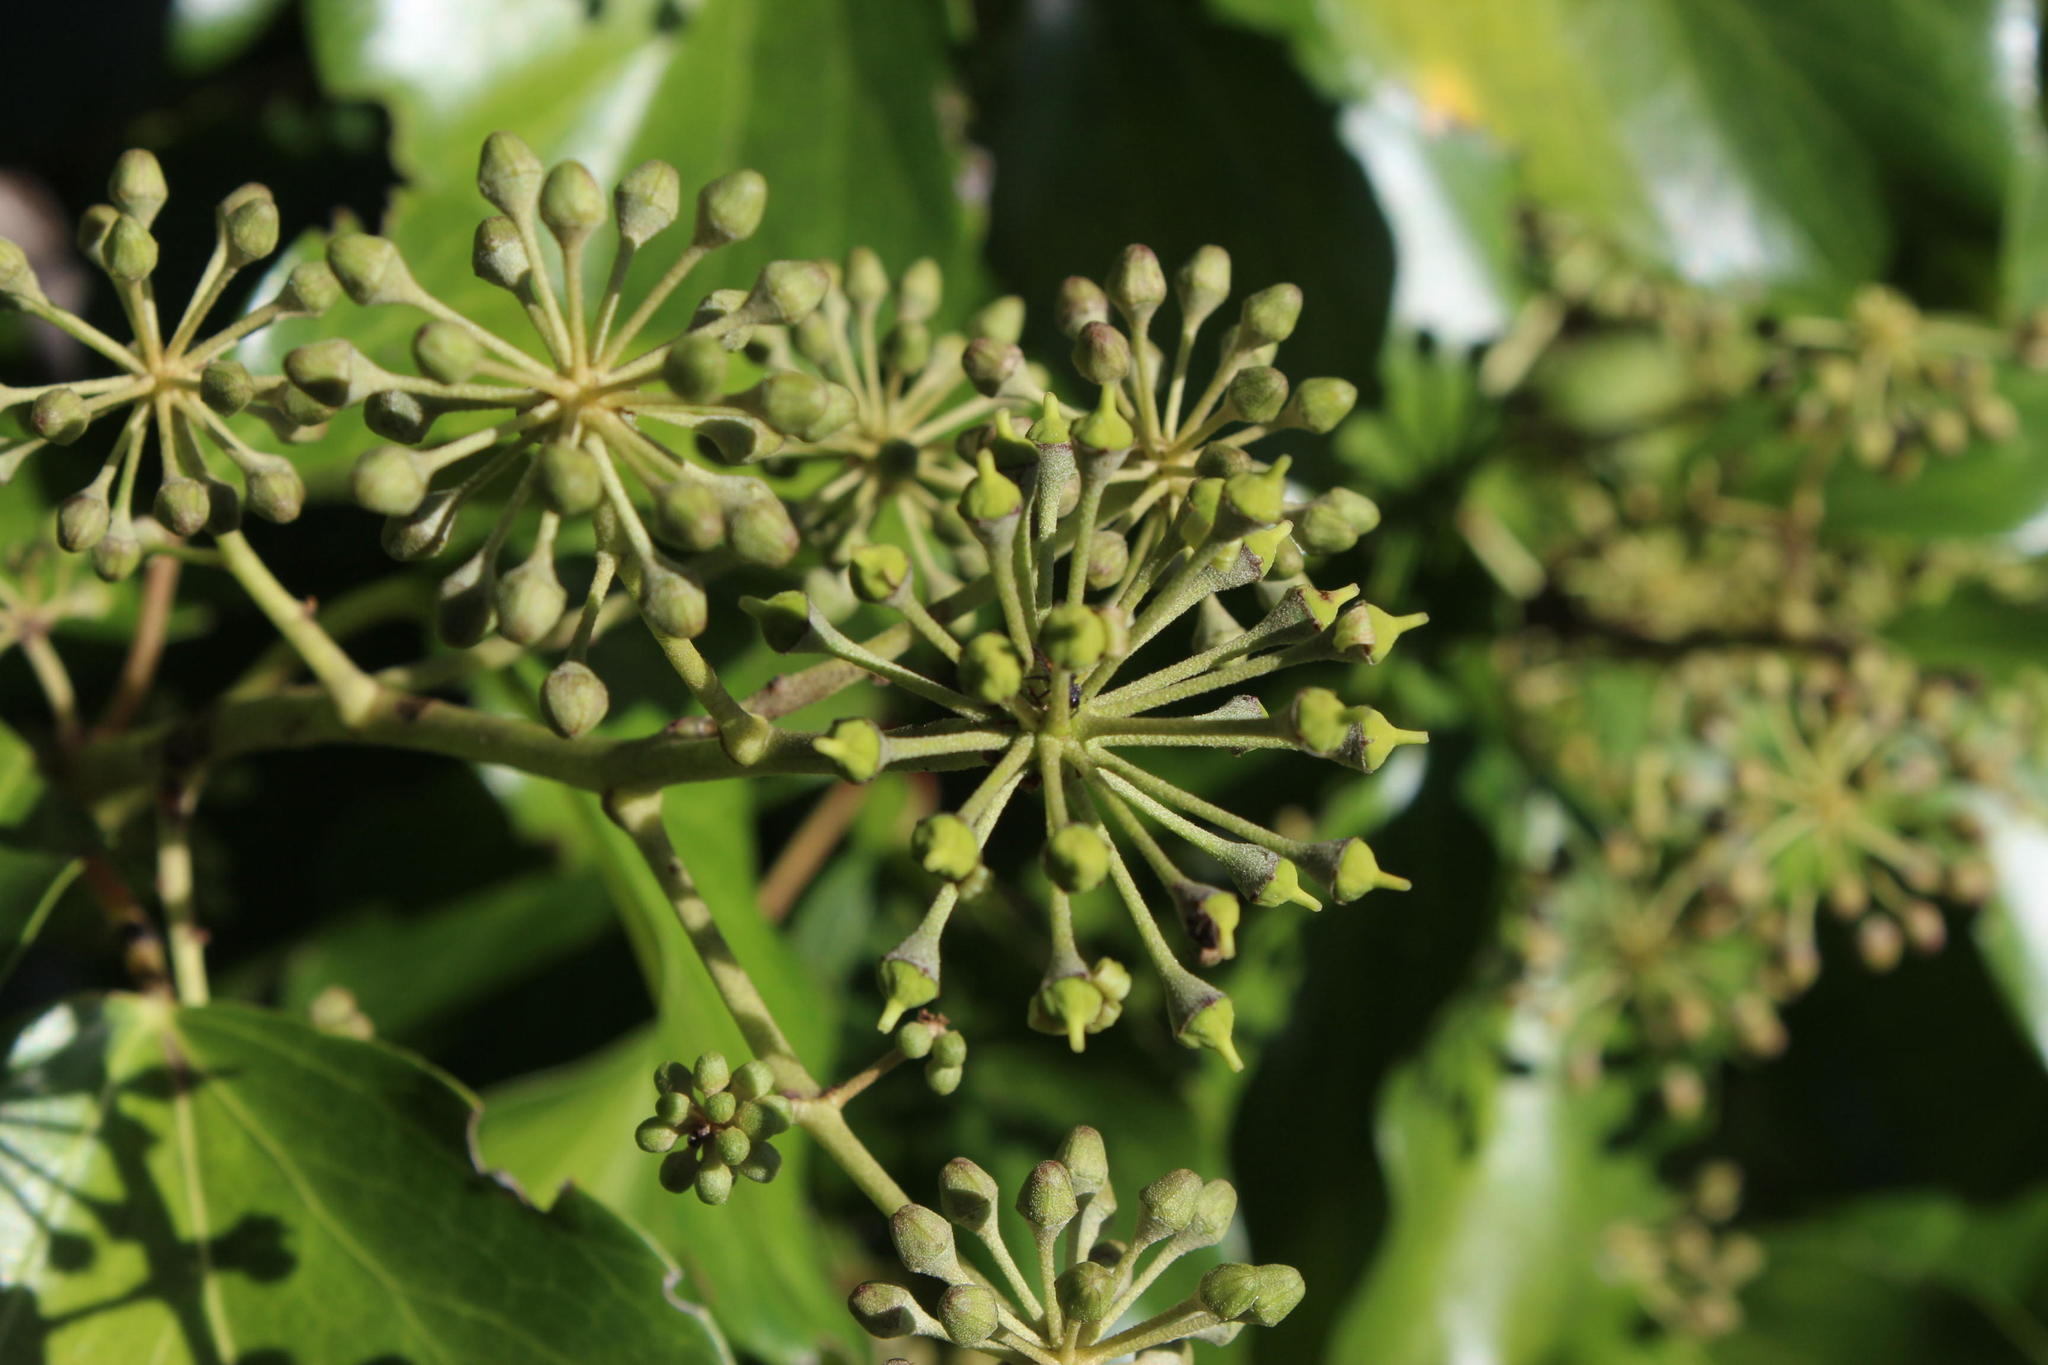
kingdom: Plantae
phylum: Tracheophyta
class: Magnoliopsida
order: Apiales
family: Araliaceae
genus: Hedera
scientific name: Hedera helix
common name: Ivy
